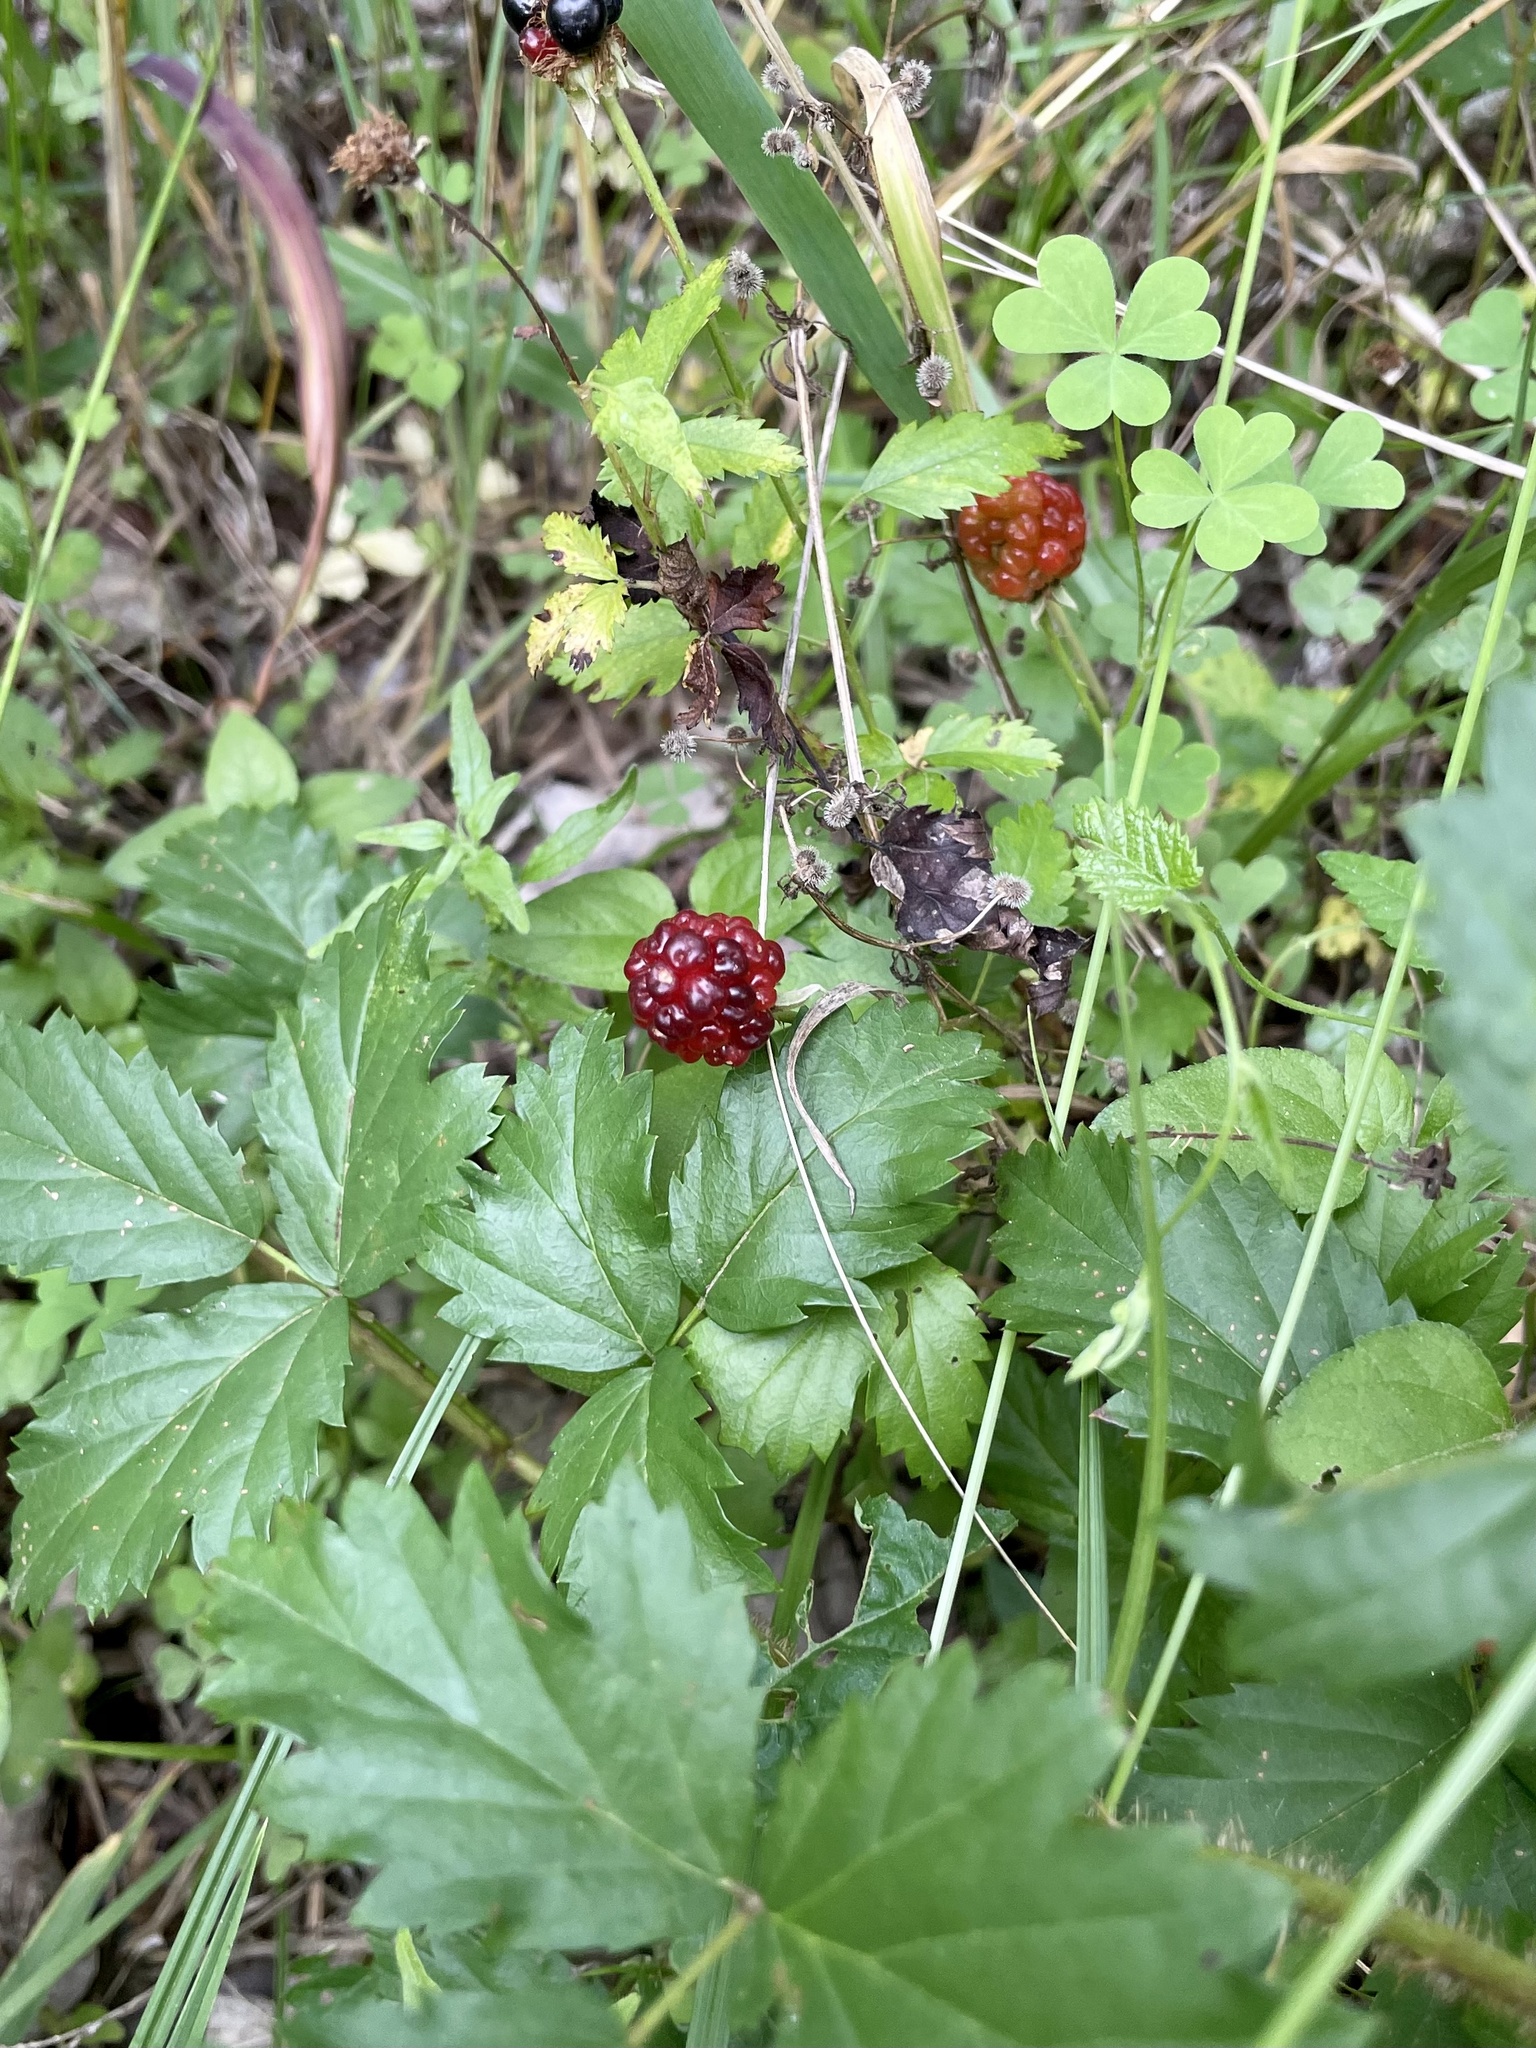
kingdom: Plantae
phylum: Tracheophyta
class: Magnoliopsida
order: Rosales
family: Rosaceae
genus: Rubus
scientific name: Rubus trivialis
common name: Southern dewberry
